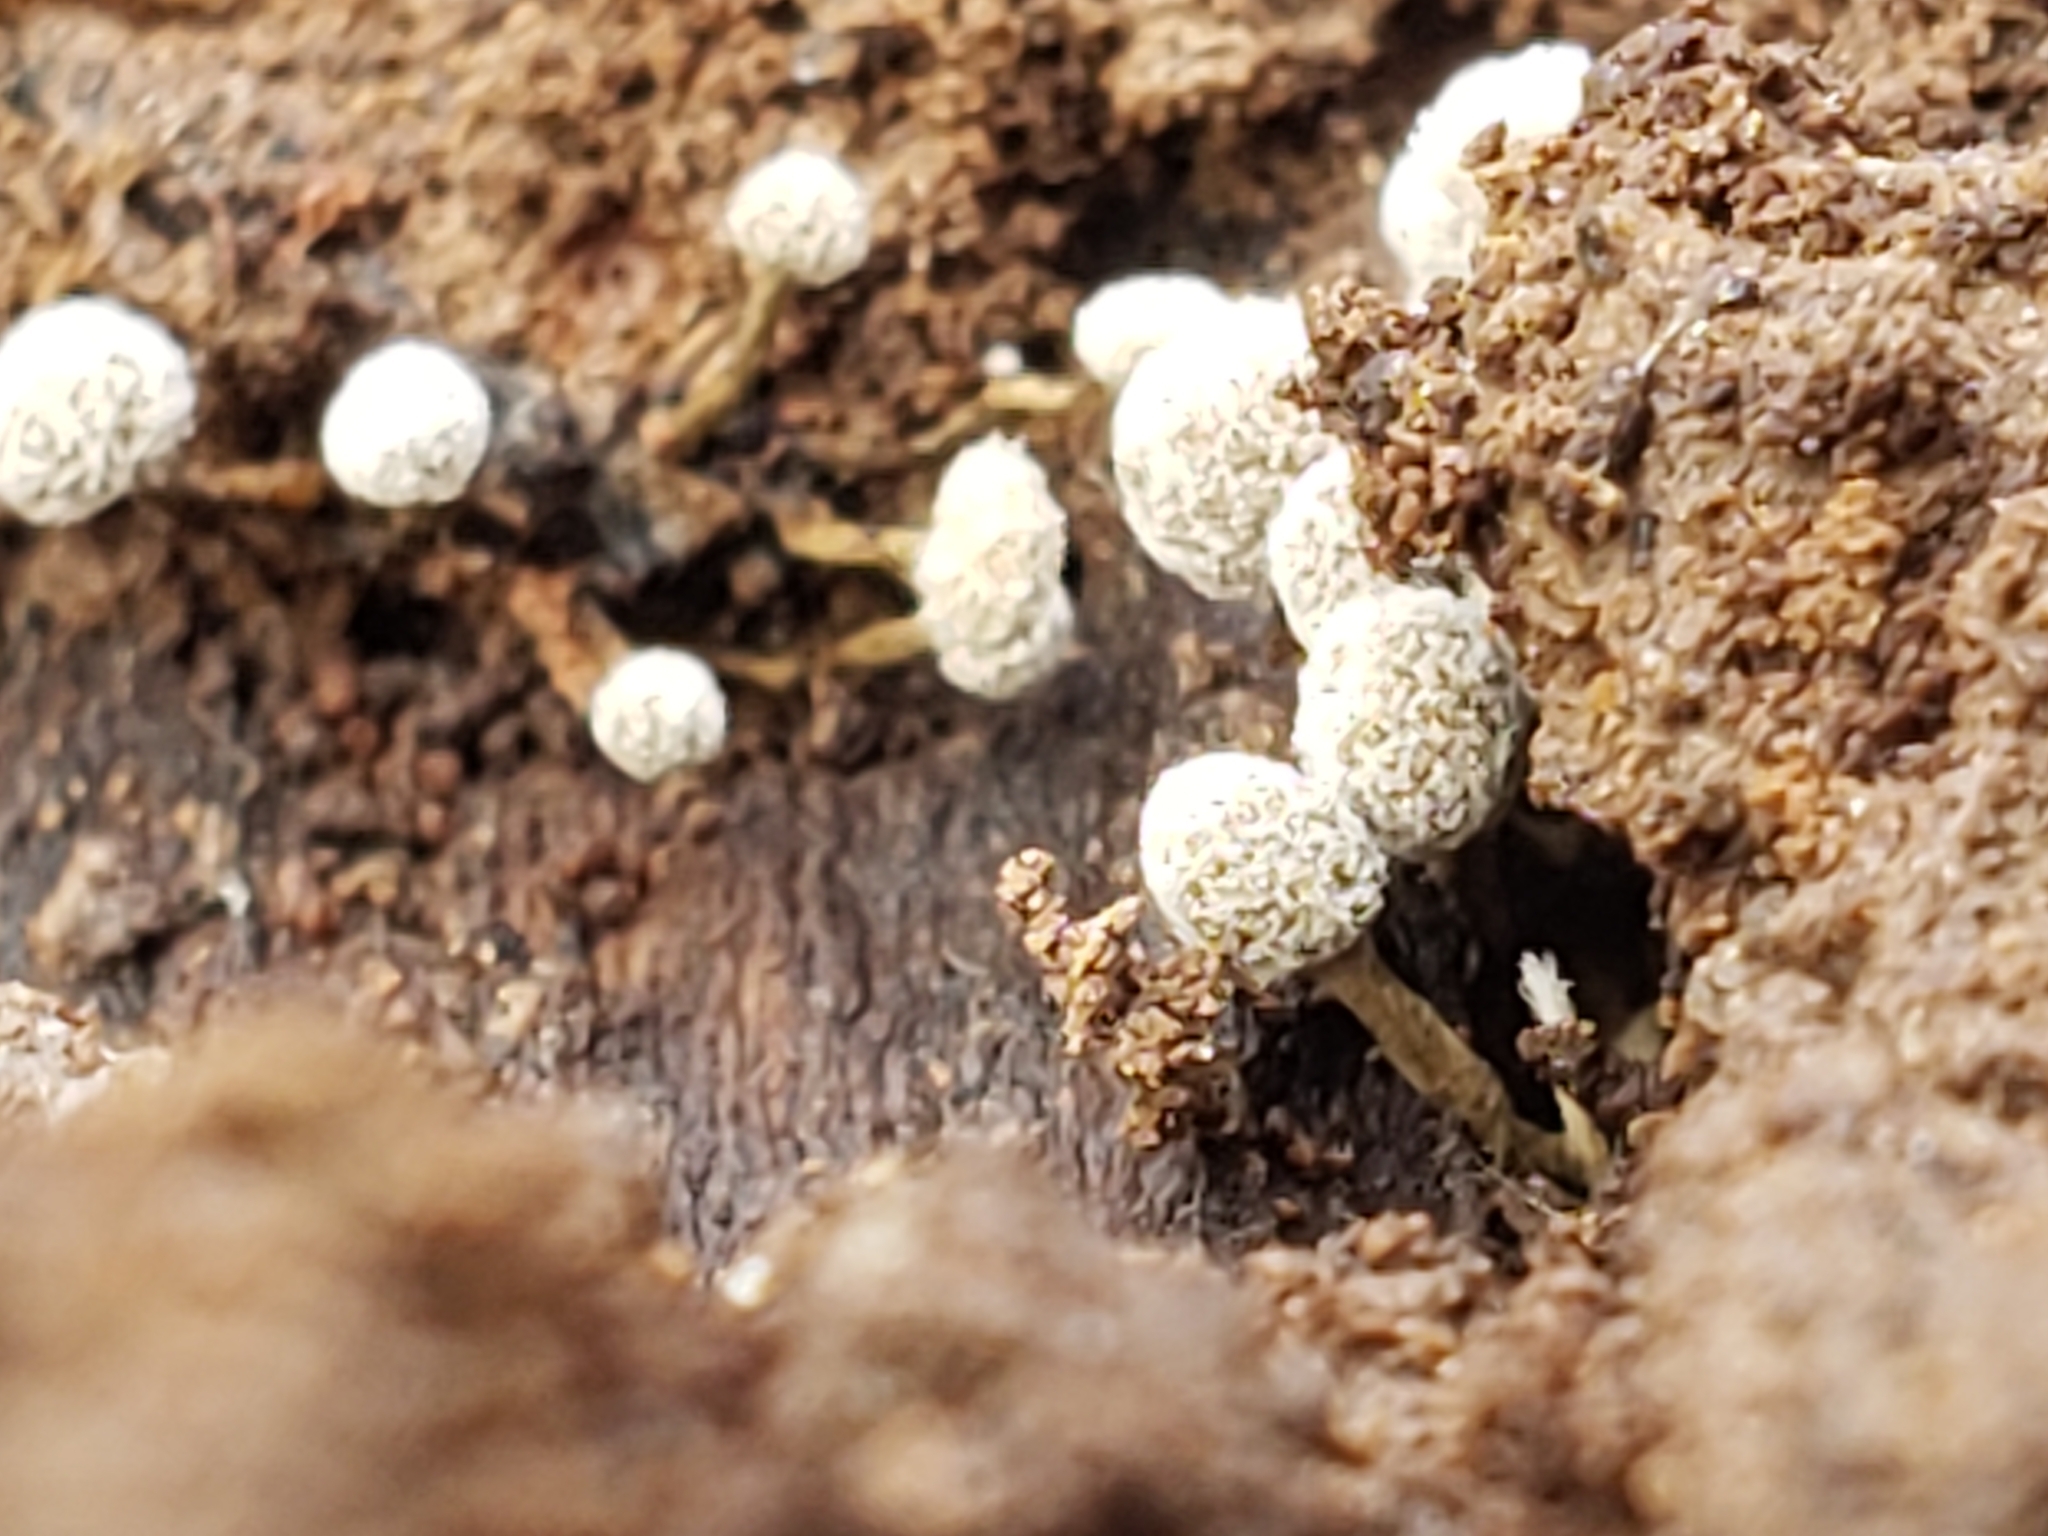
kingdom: Fungi
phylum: Basidiomycota
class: Atractiellomycetes
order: Atractiellales
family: Phleogenaceae
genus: Phleogena
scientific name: Phleogena faginea
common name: Fenugreek stalkball
